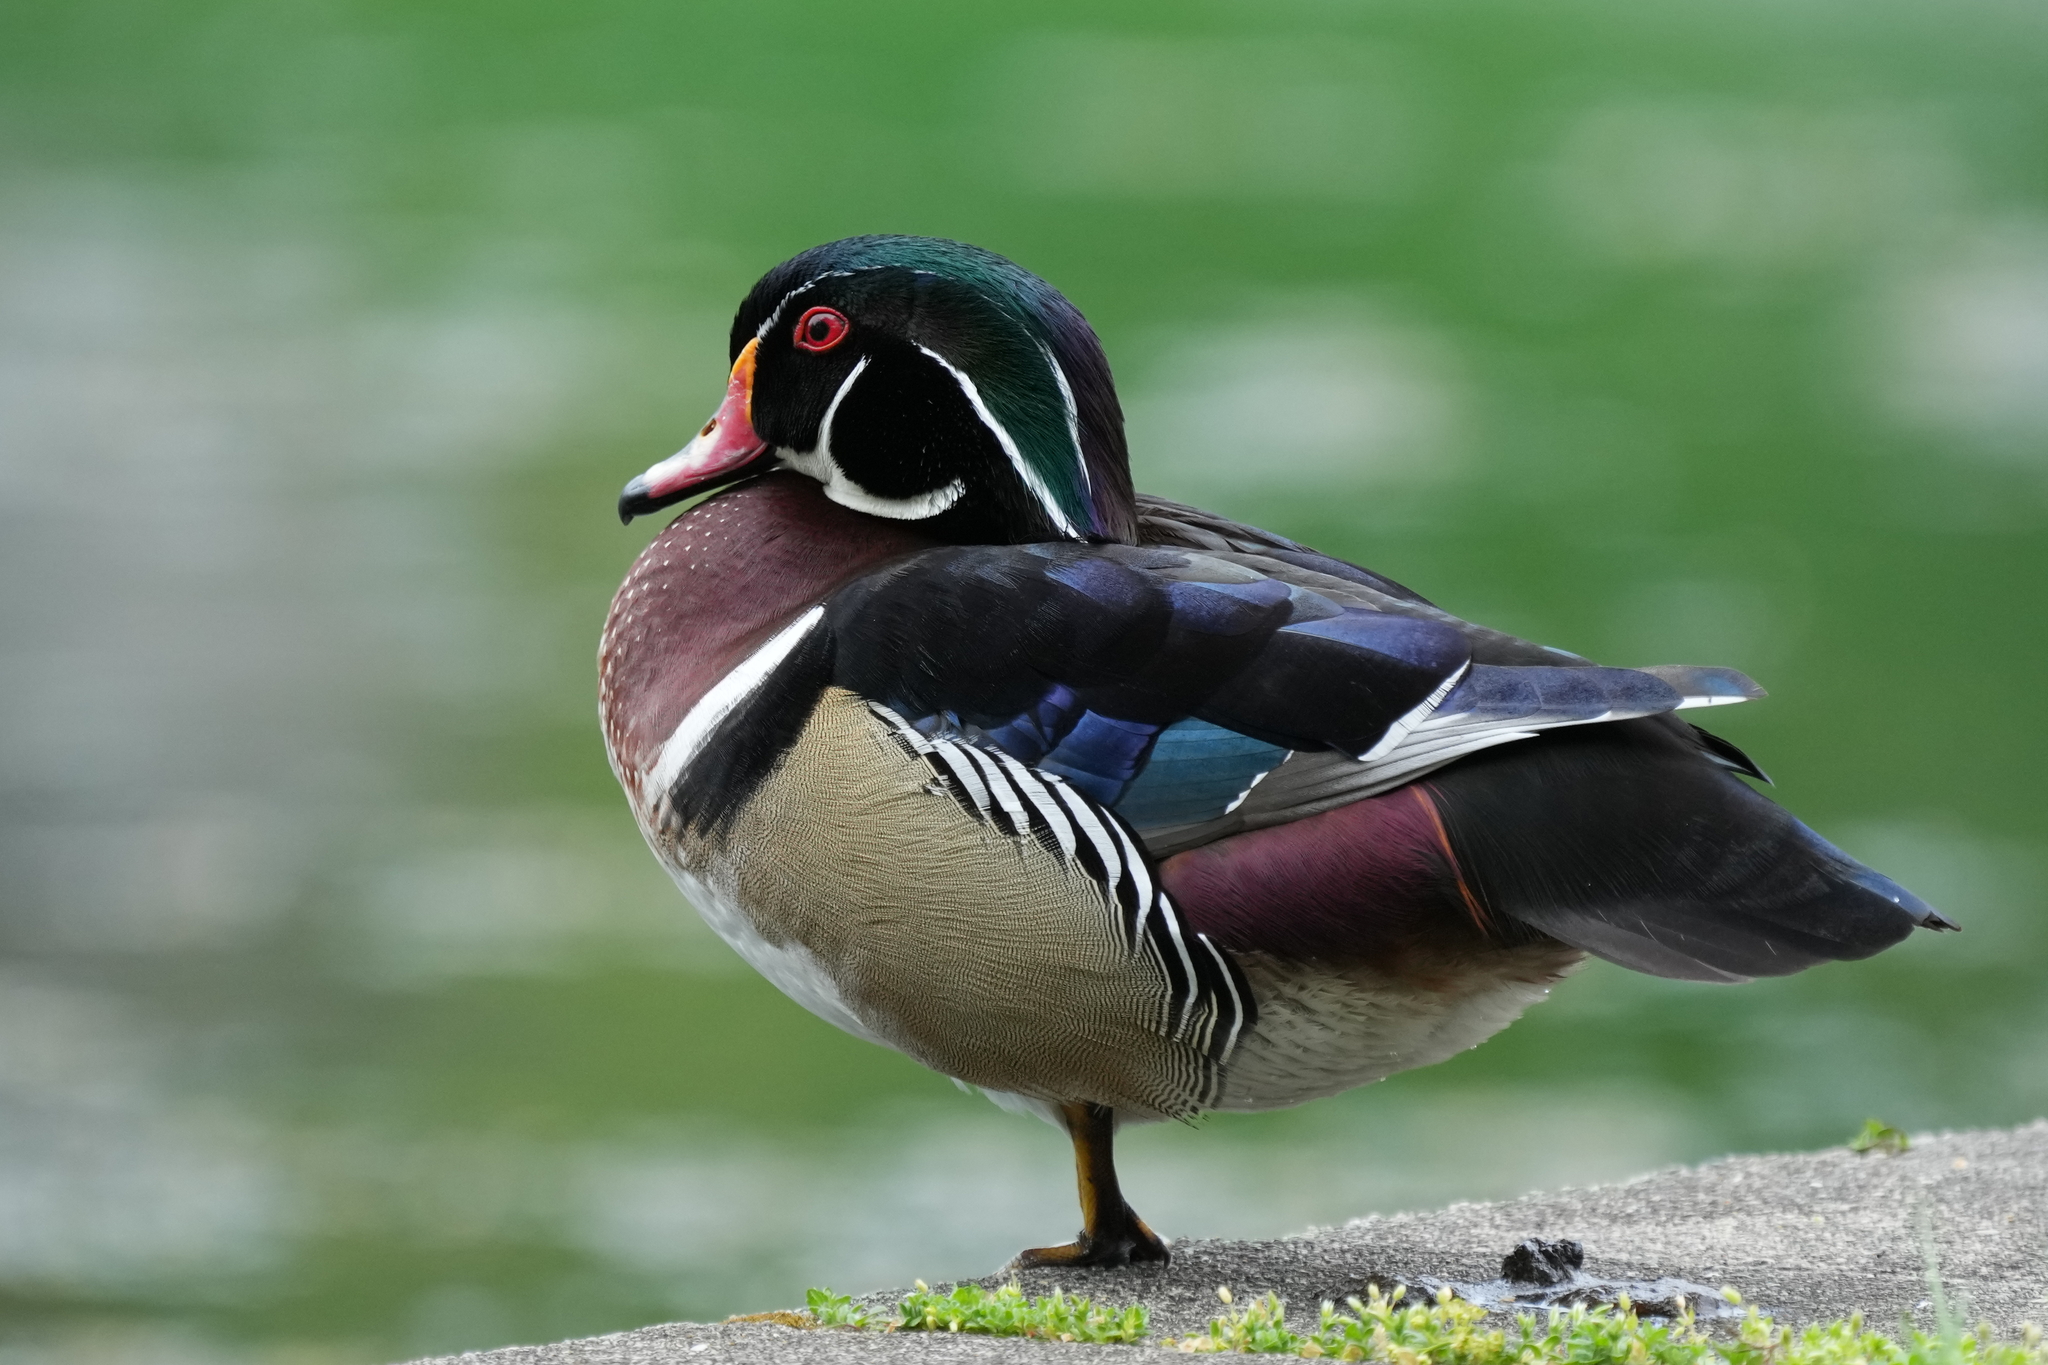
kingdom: Animalia
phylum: Chordata
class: Aves
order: Anseriformes
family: Anatidae
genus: Aix
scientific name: Aix sponsa
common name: Wood duck
